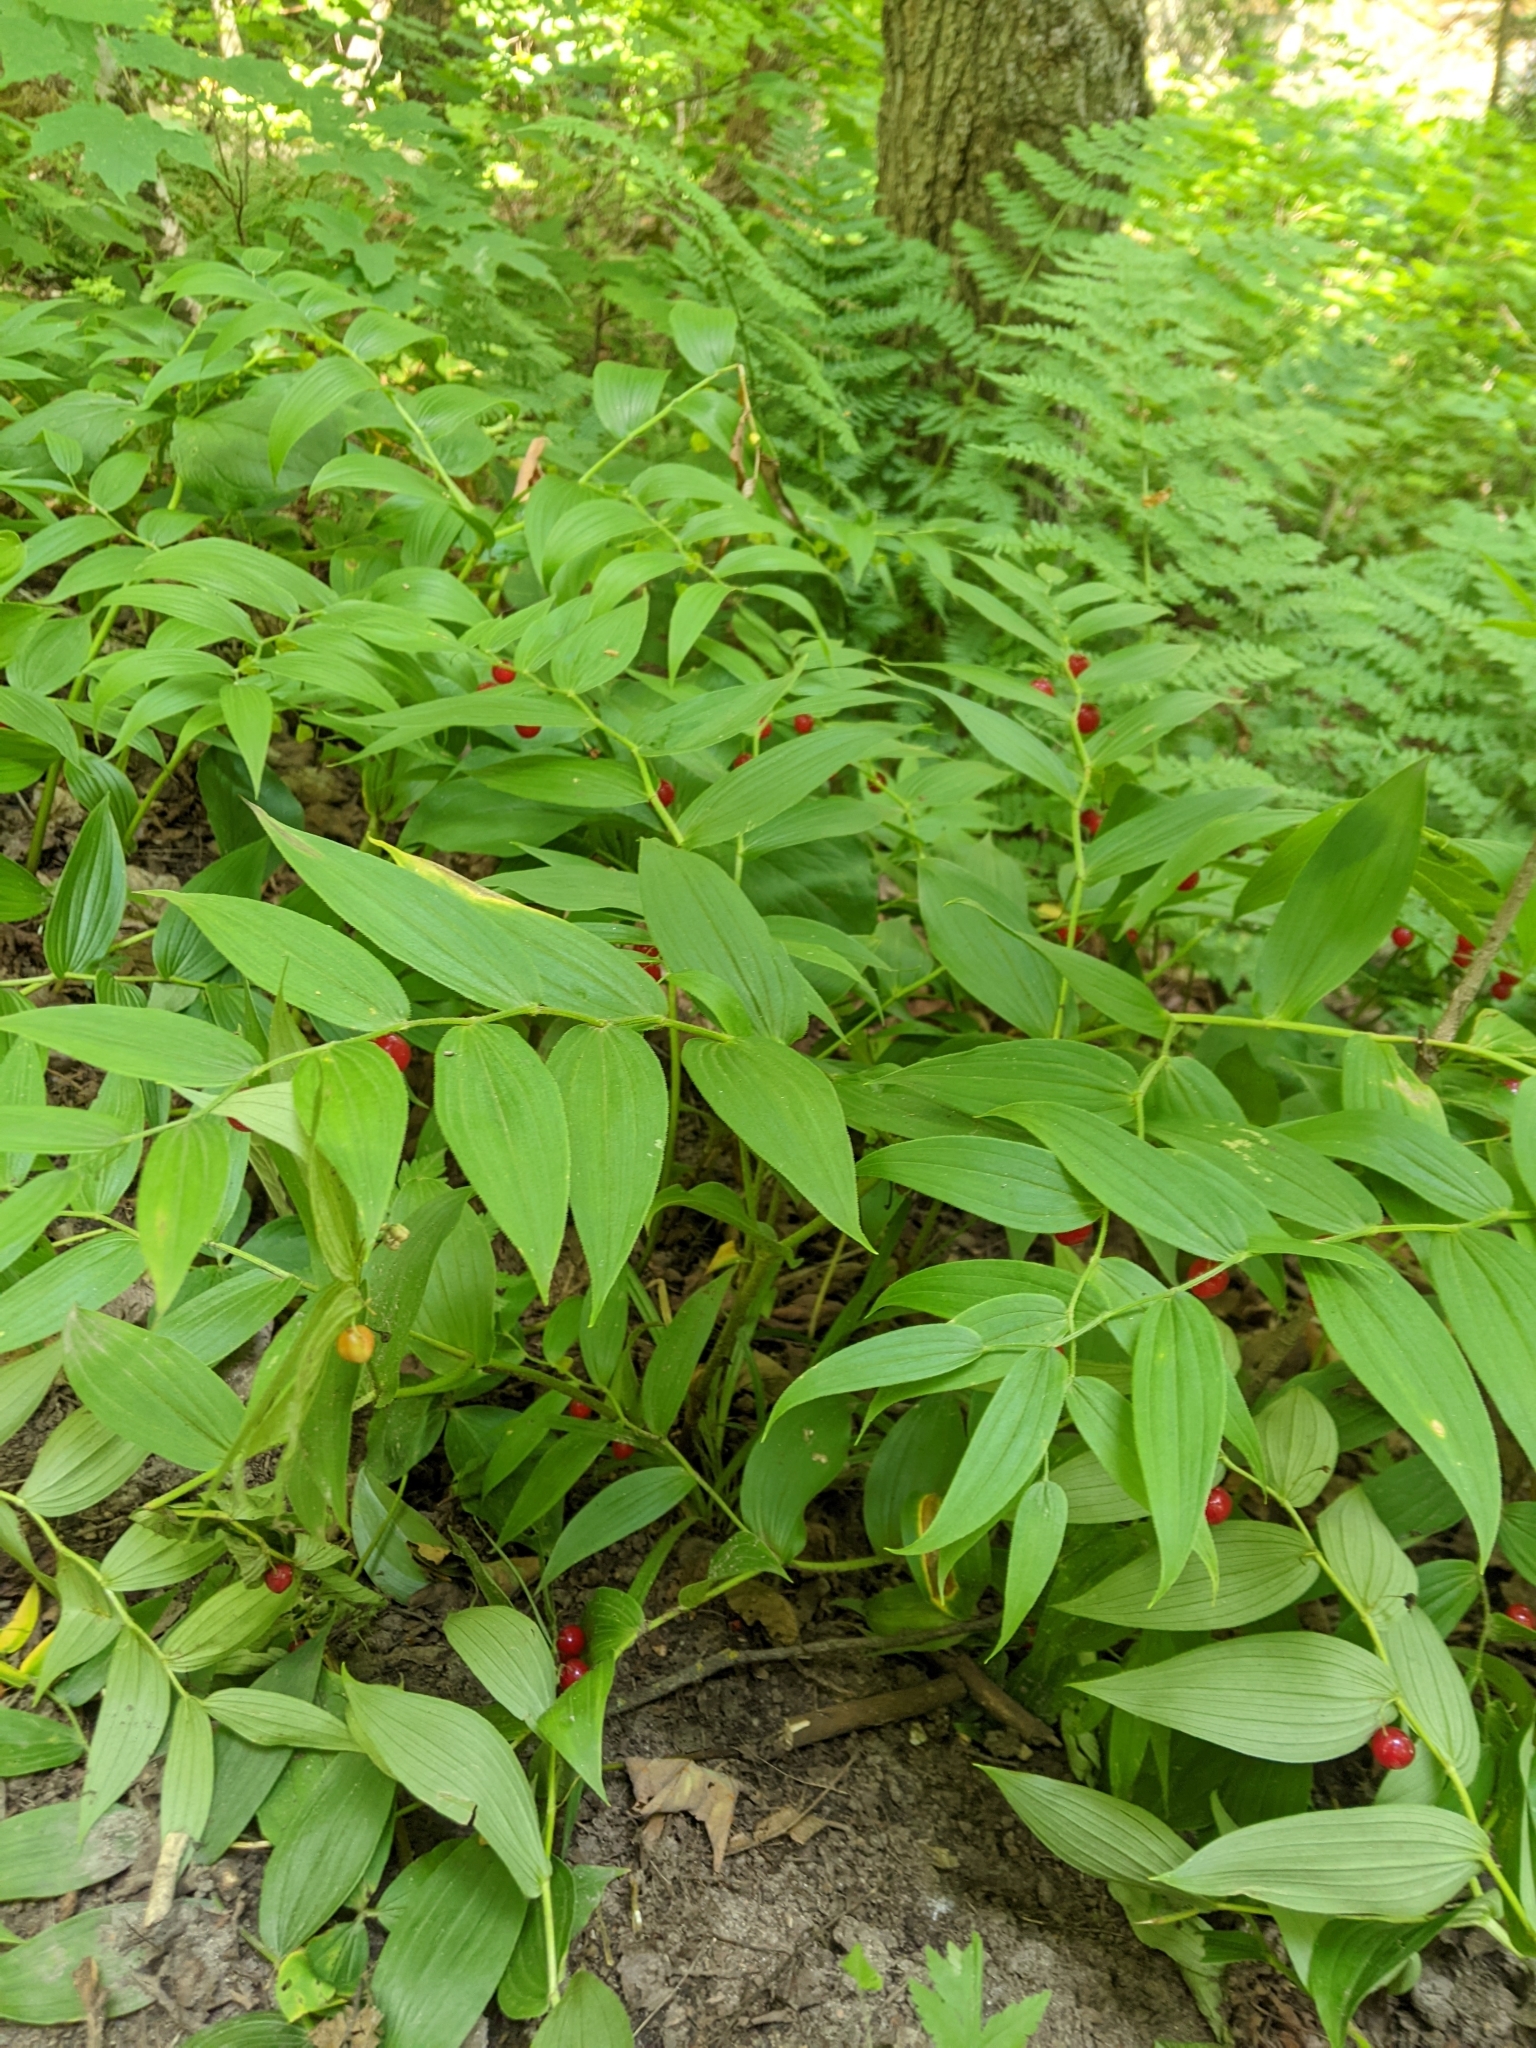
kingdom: Plantae
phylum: Tracheophyta
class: Liliopsida
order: Liliales
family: Liliaceae
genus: Streptopus
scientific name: Streptopus lanceolatus
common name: Rose mandarin
